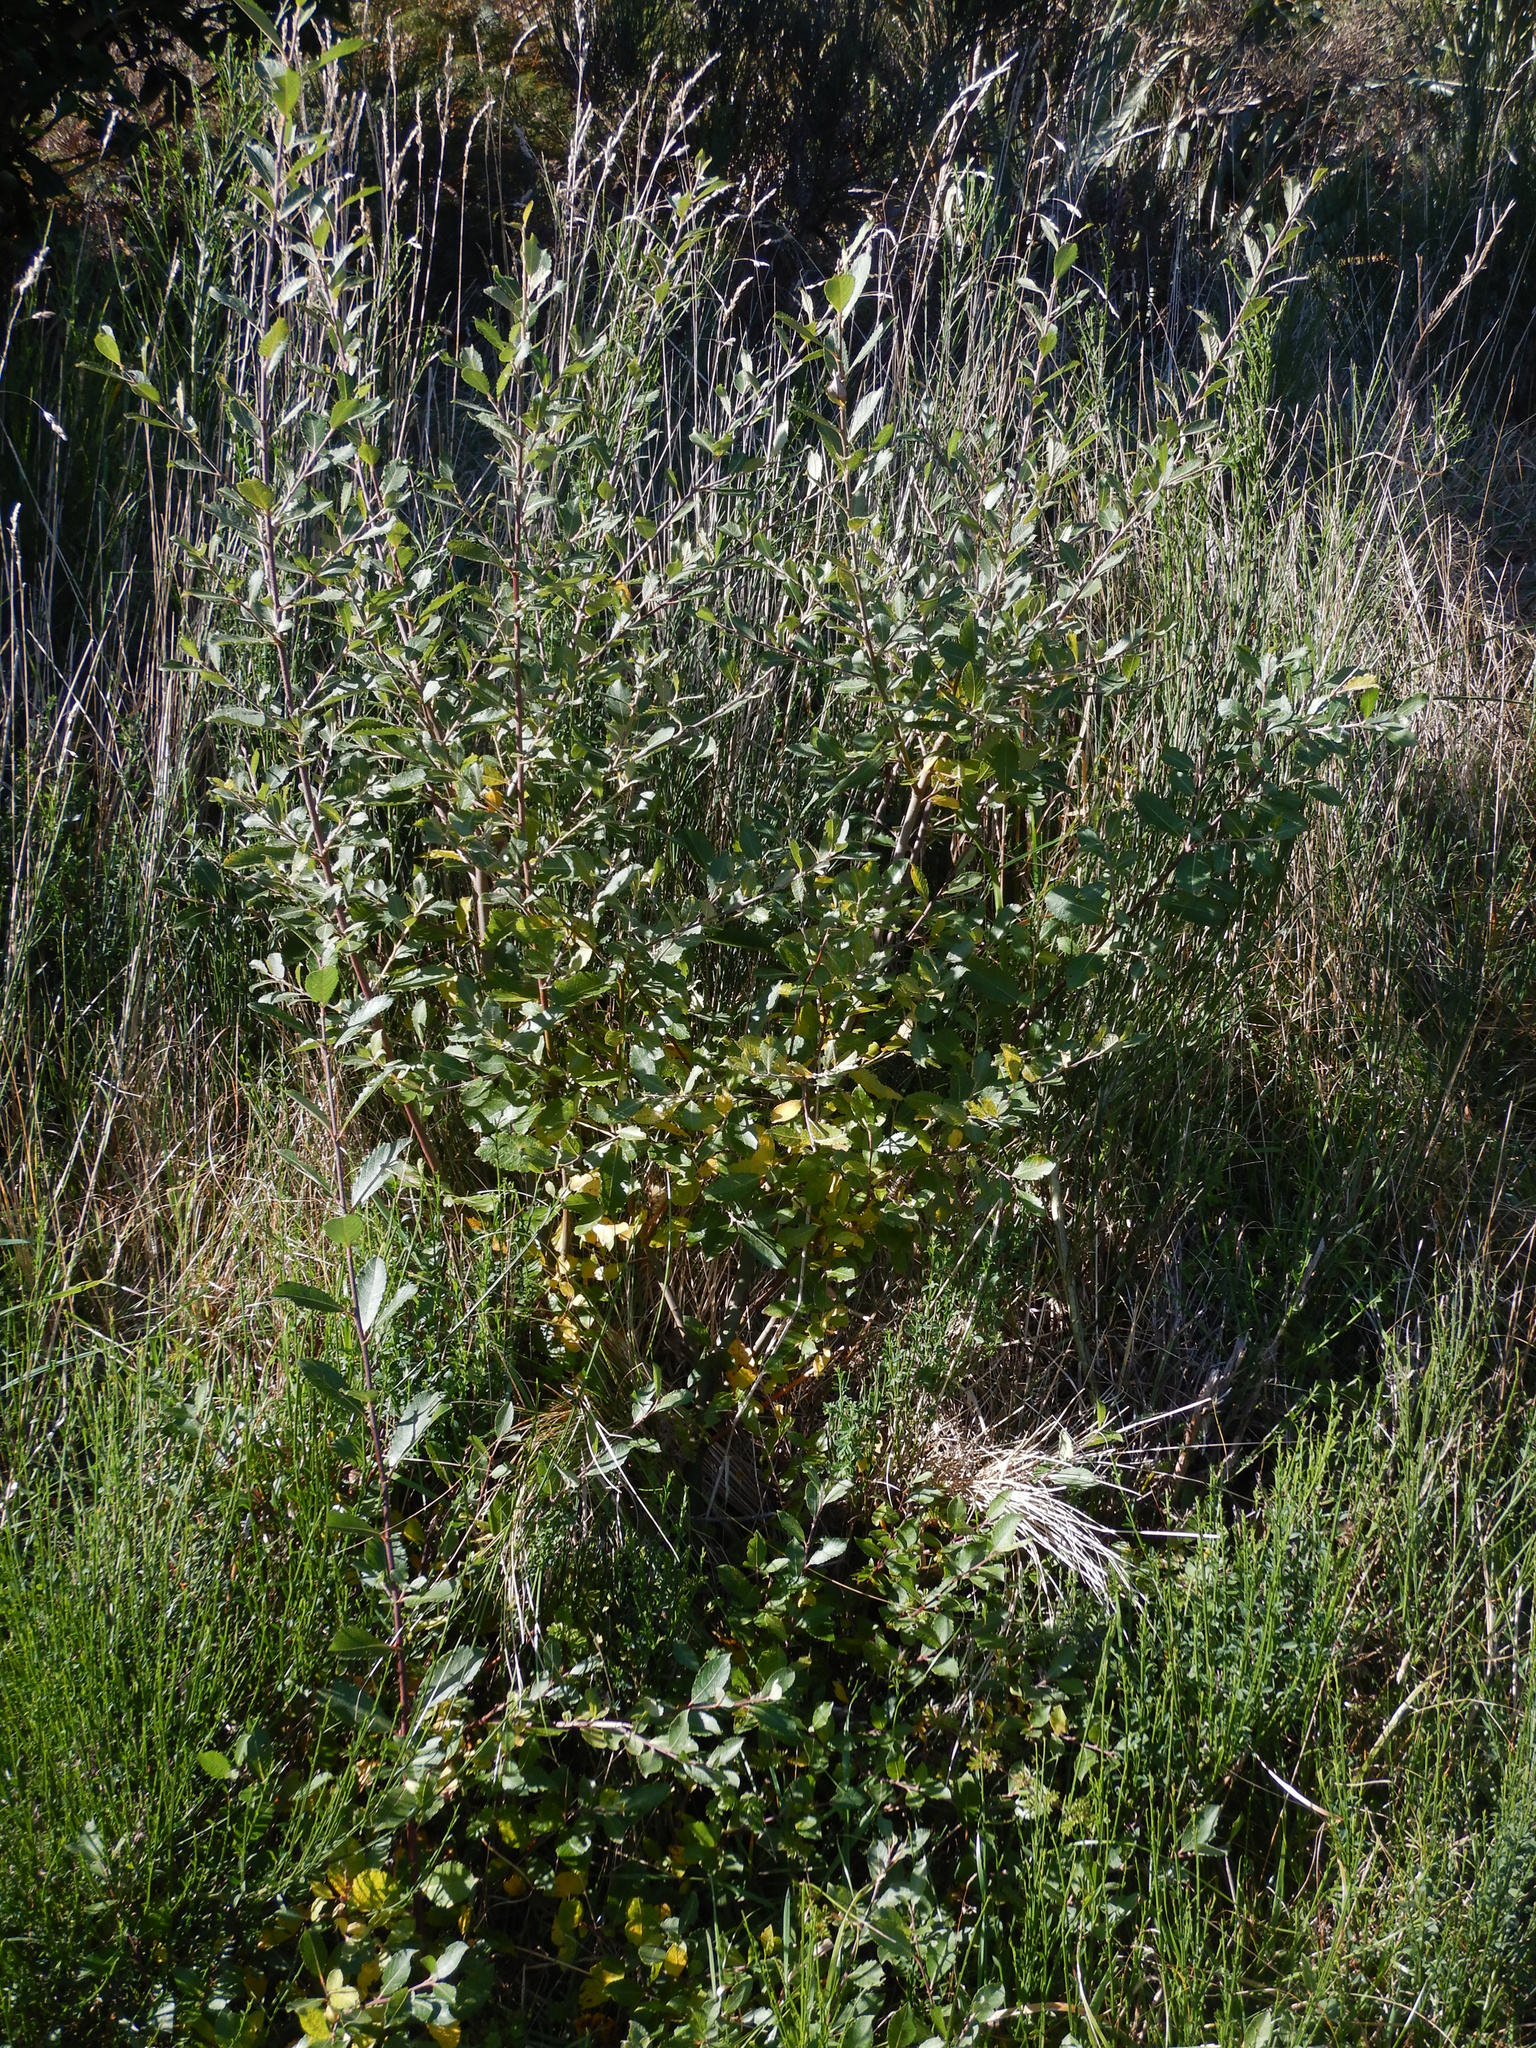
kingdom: Plantae
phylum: Tracheophyta
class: Magnoliopsida
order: Malpighiales
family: Salicaceae
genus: Salix
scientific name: Salix cinerea
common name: Common sallow
